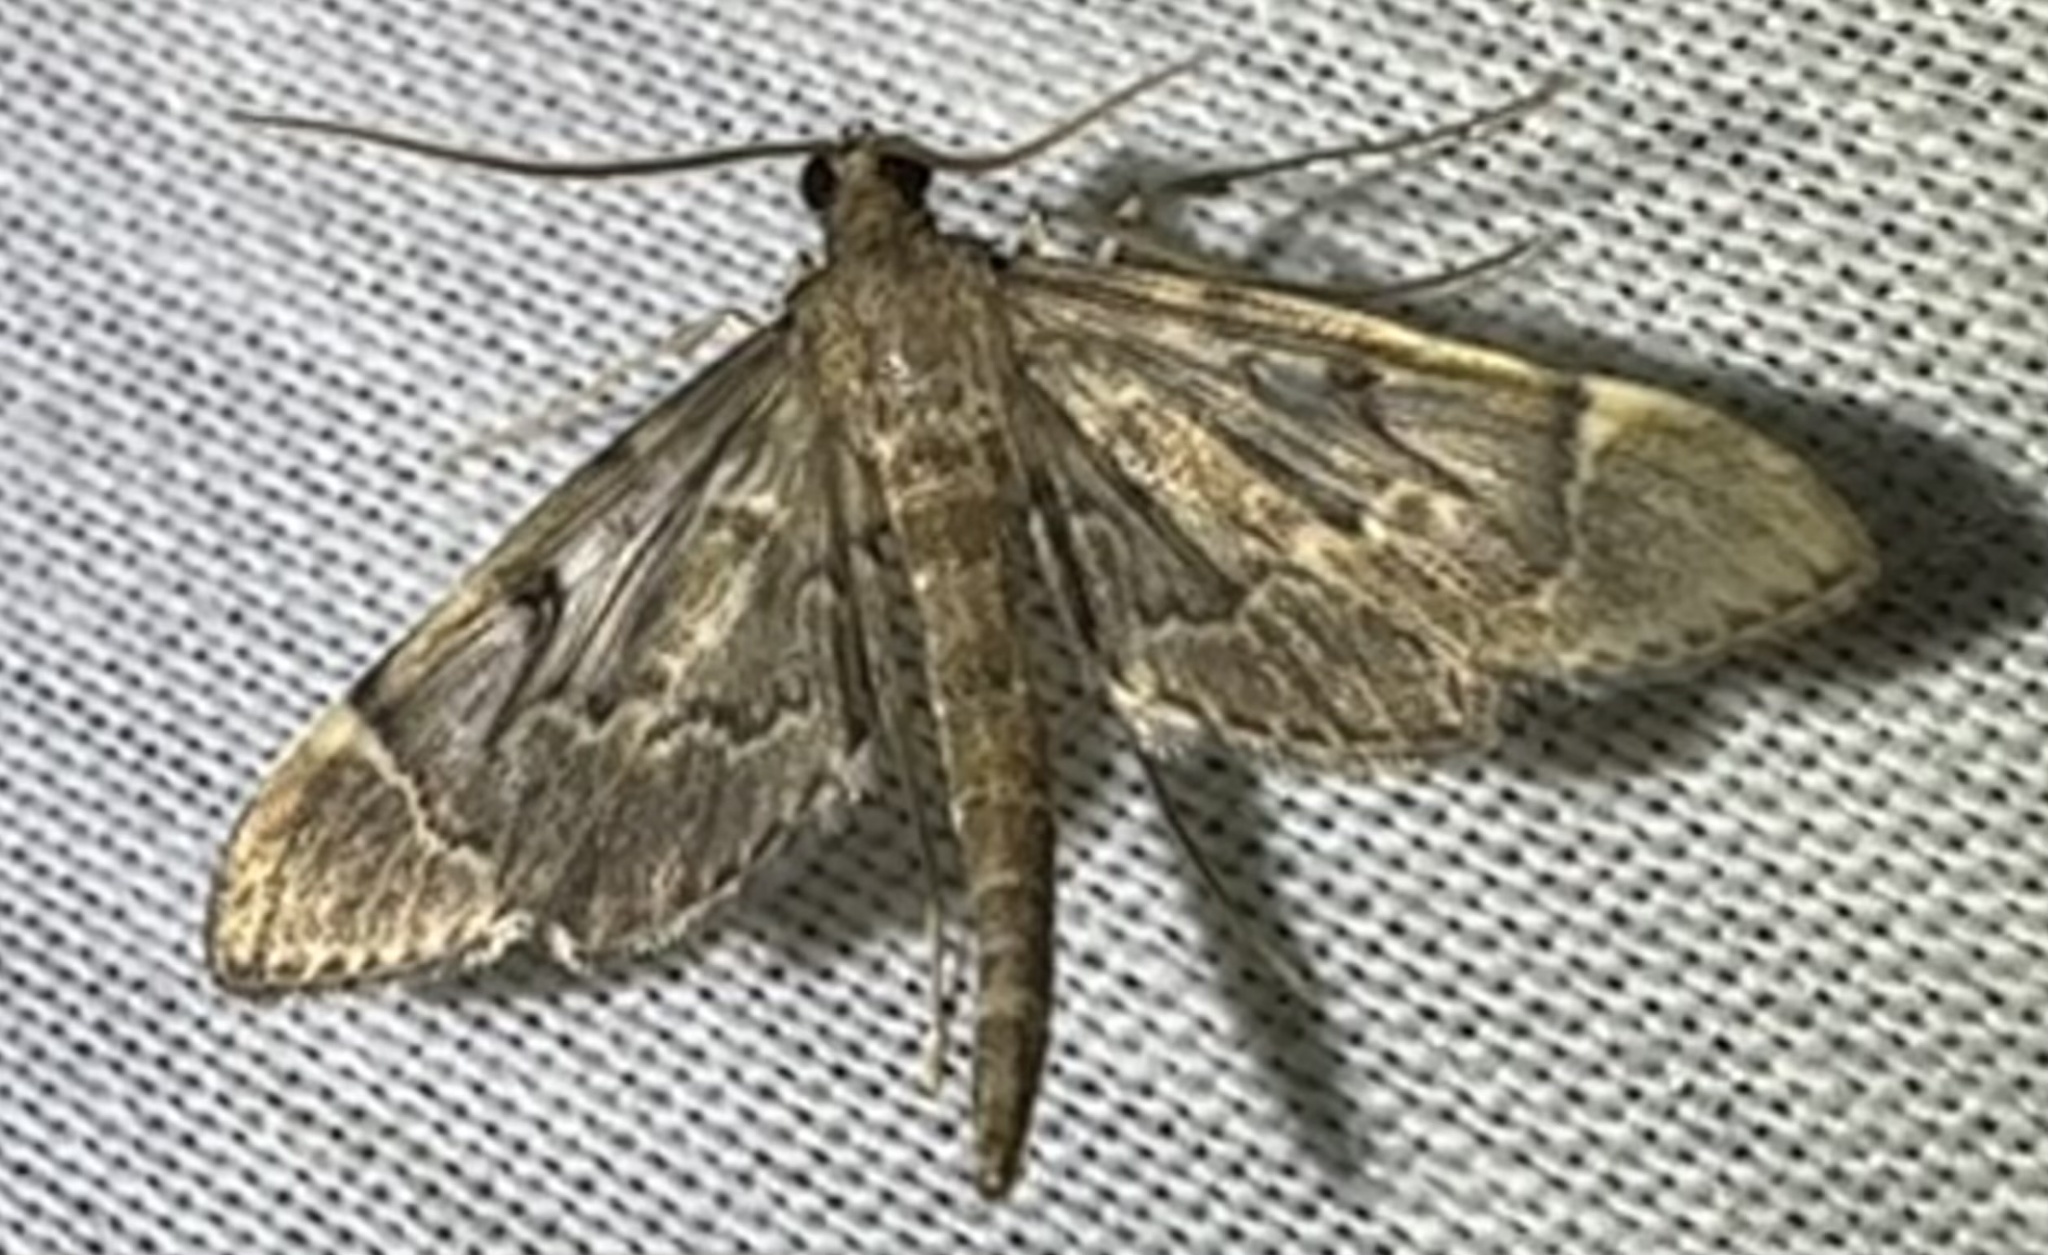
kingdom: Animalia
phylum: Arthropoda
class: Insecta
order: Lepidoptera
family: Crambidae
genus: Duponchelia
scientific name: Duponchelia lanceolalis
